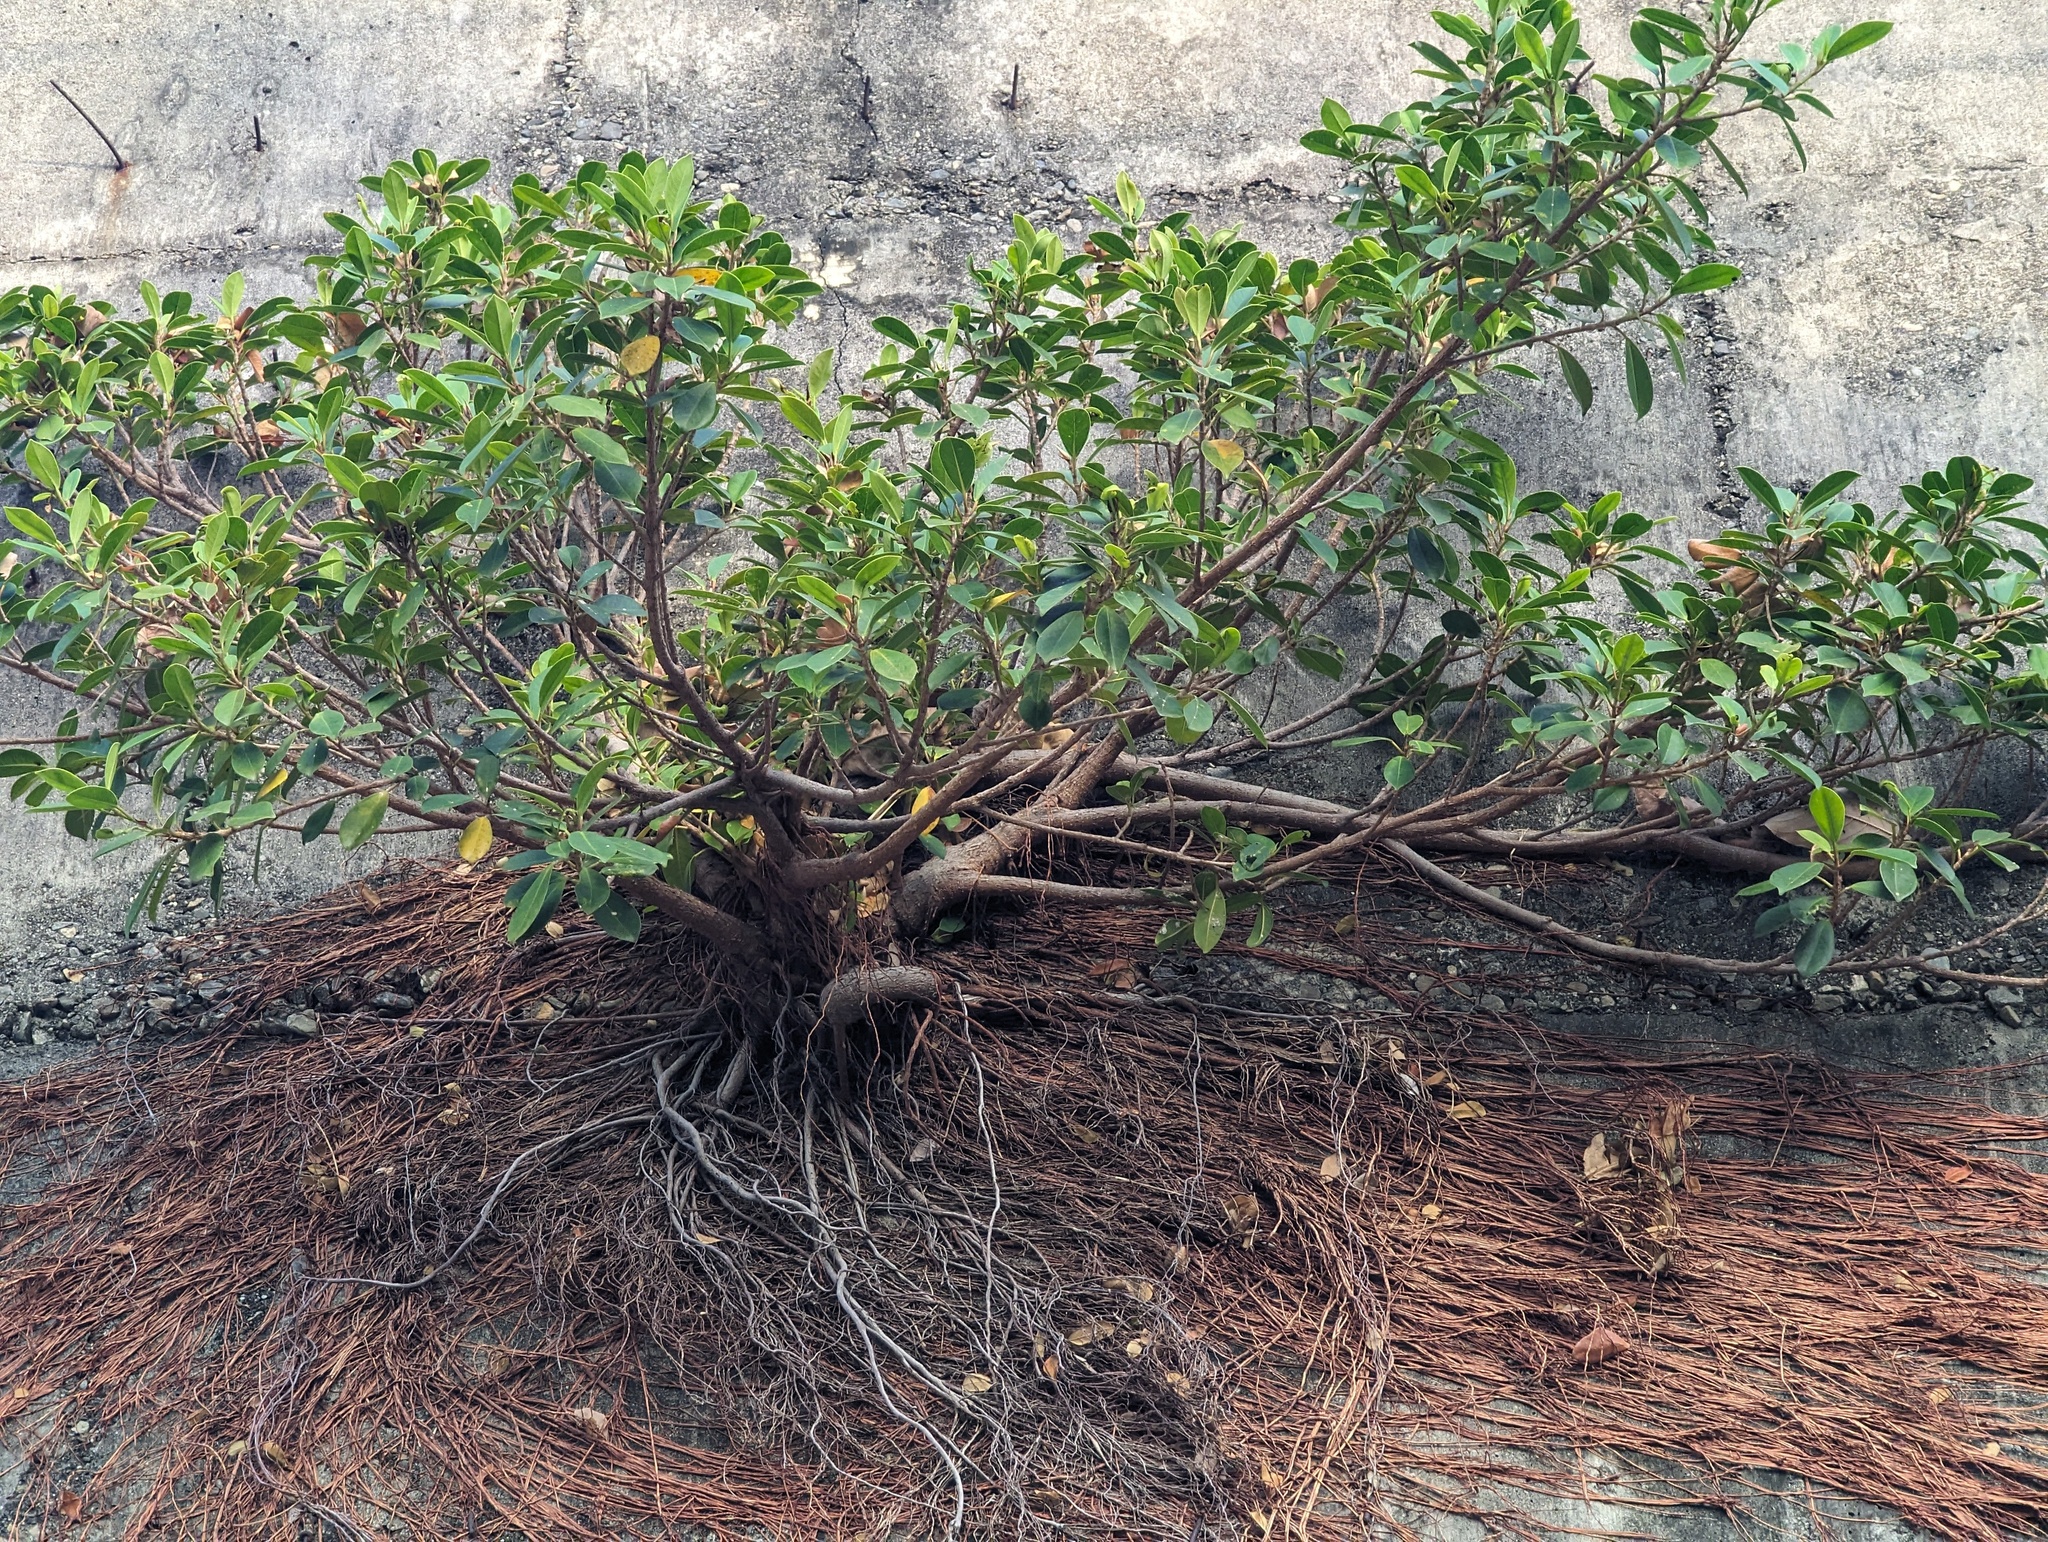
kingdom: Plantae
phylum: Tracheophyta
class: Magnoliopsida
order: Rosales
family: Moraceae
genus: Ficus
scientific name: Ficus microcarpa
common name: Chinese banyan
